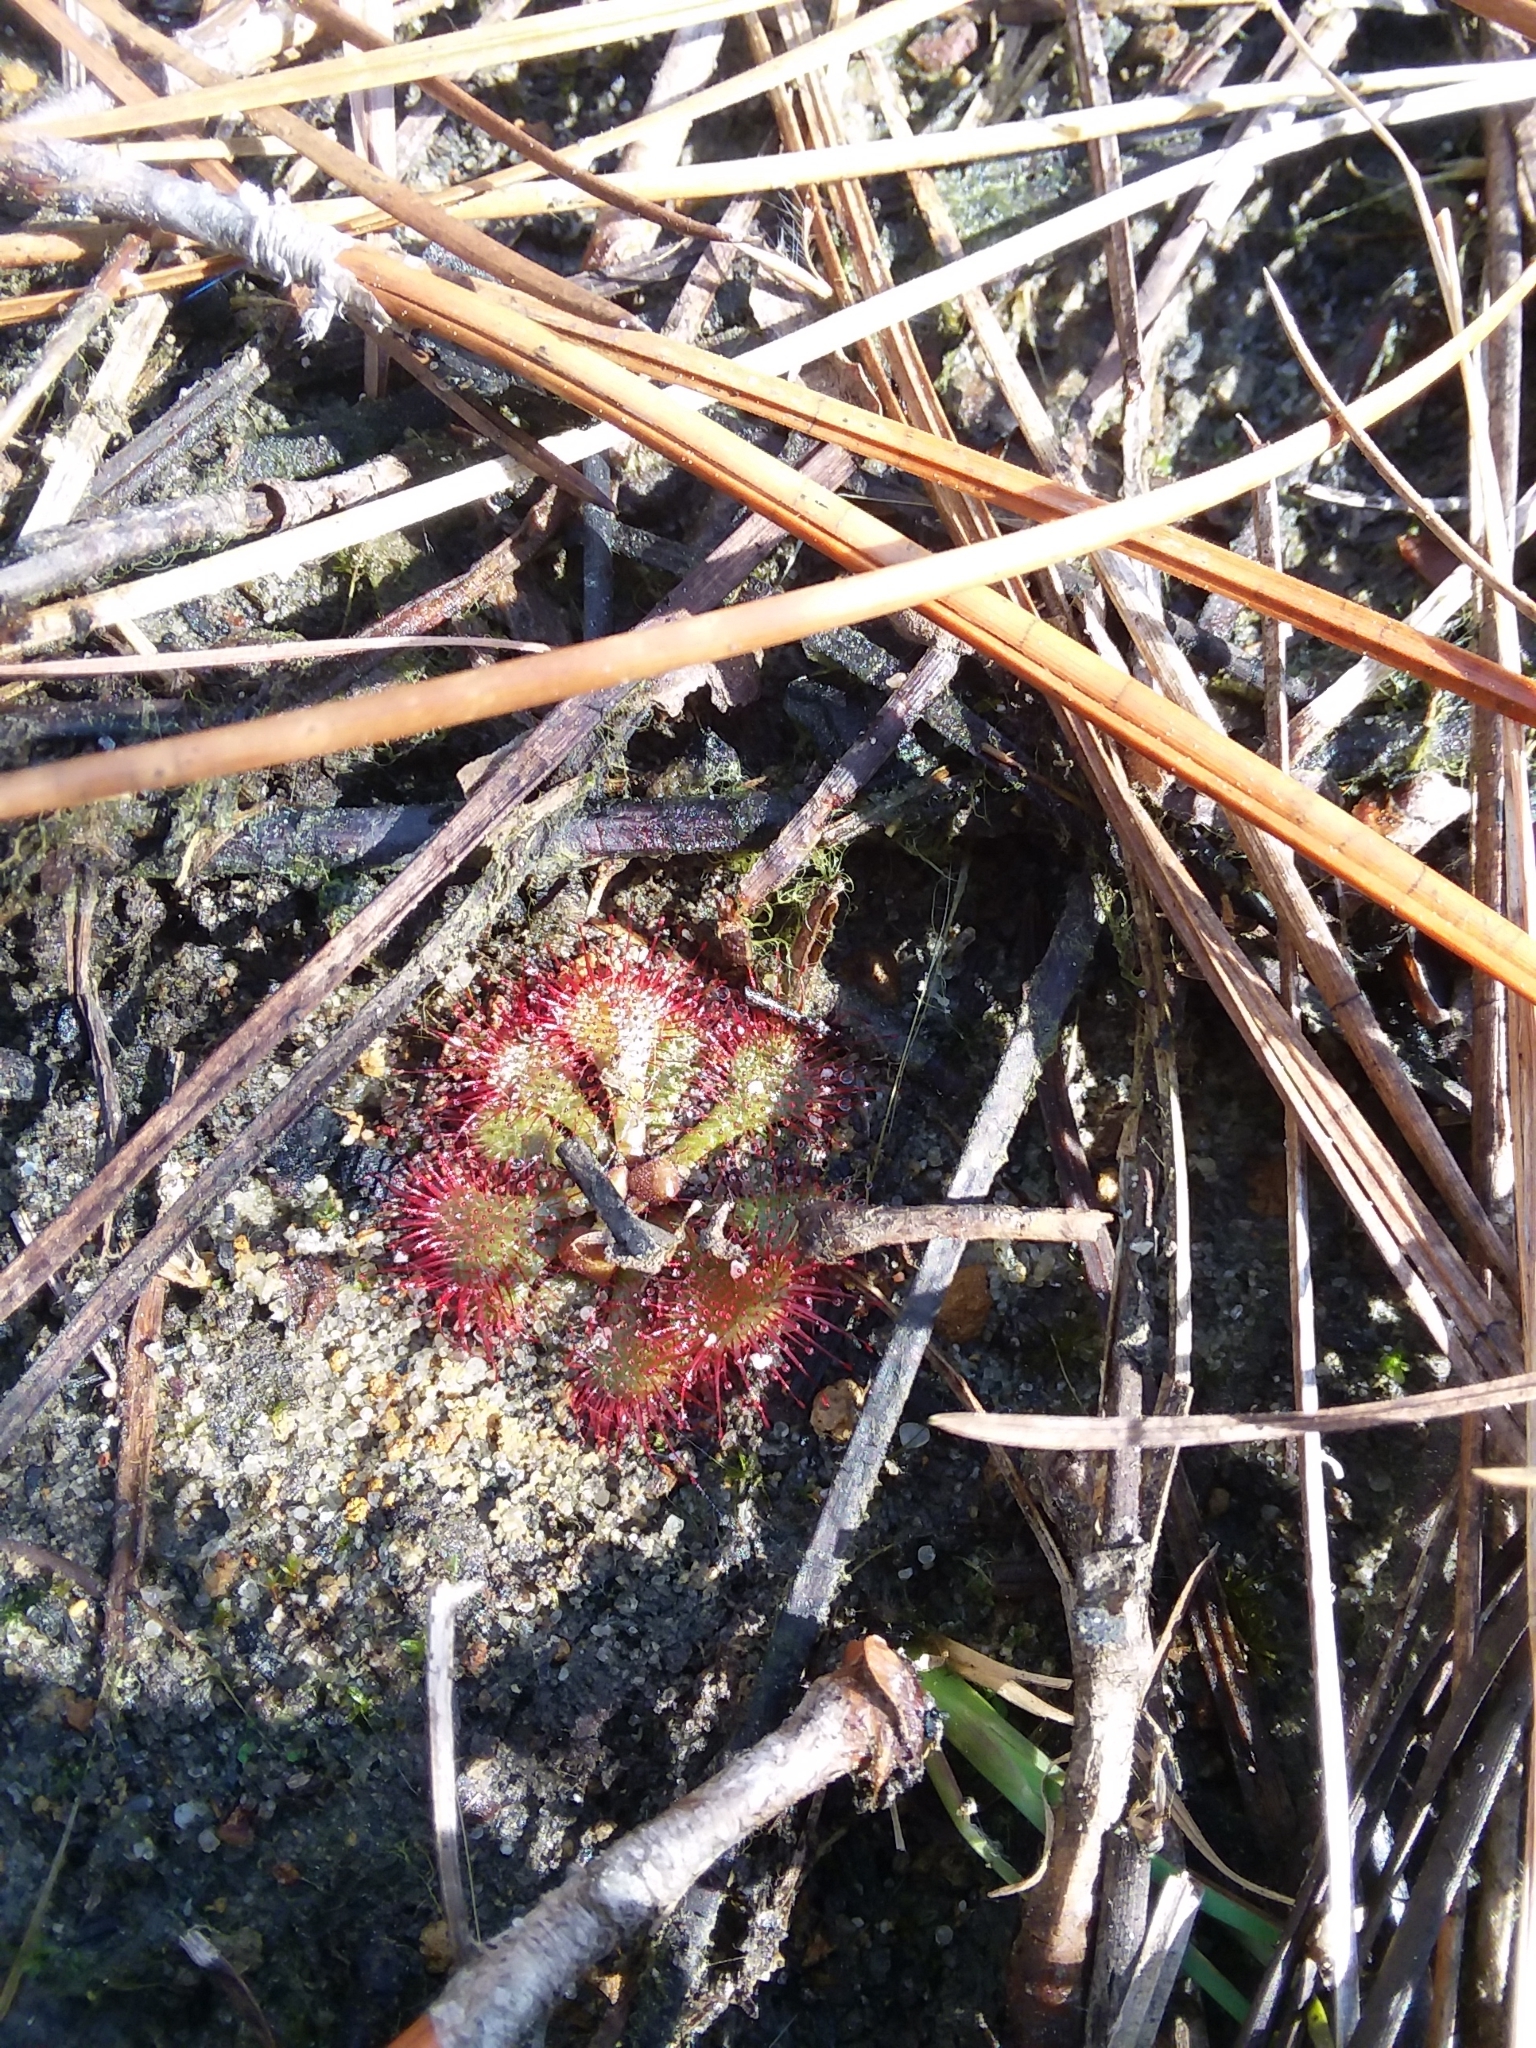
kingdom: Plantae
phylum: Tracheophyta
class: Magnoliopsida
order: Caryophyllales
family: Droseraceae
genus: Drosera
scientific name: Drosera brevifolia
